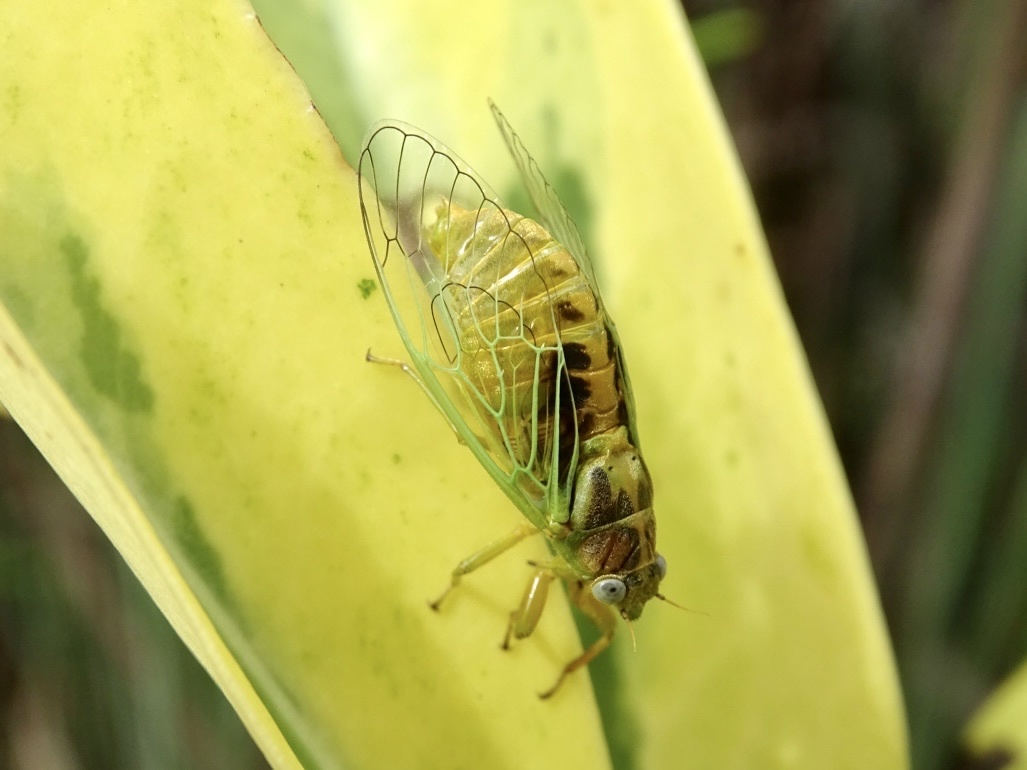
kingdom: Animalia
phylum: Arthropoda
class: Insecta
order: Hemiptera
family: Cicadidae
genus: Mogannia
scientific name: Mogannia hebes
